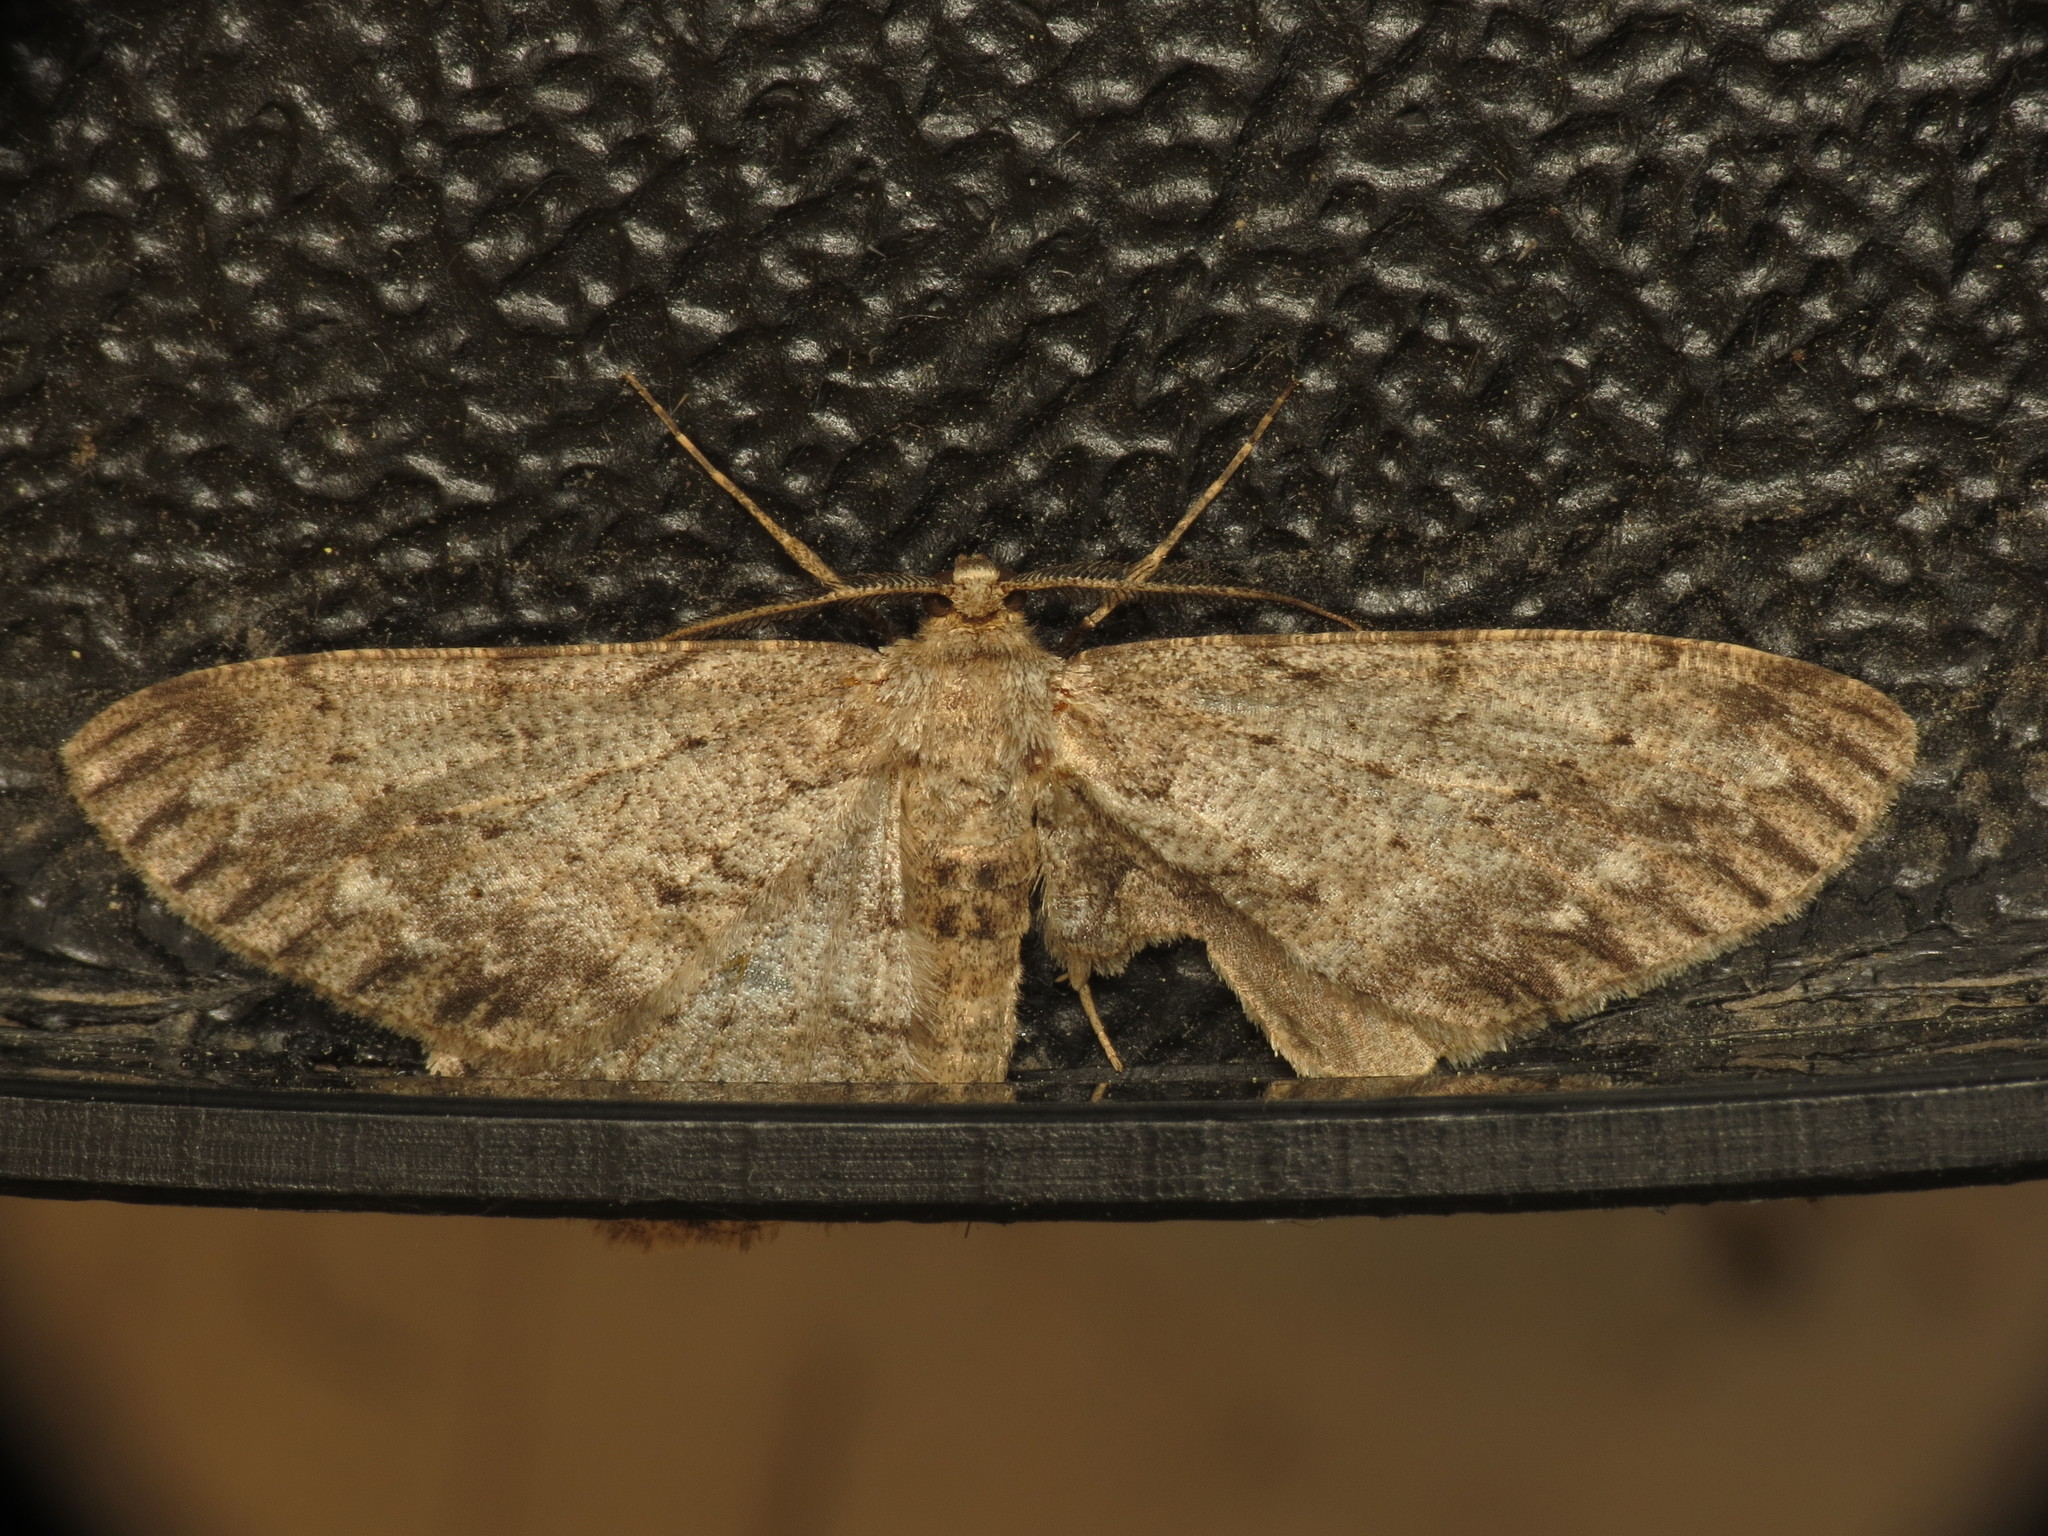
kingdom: Animalia
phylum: Arthropoda
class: Insecta
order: Lepidoptera
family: Geometridae
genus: Hypomecis
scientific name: Hypomecis punctinalis
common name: Pale oak beauty
